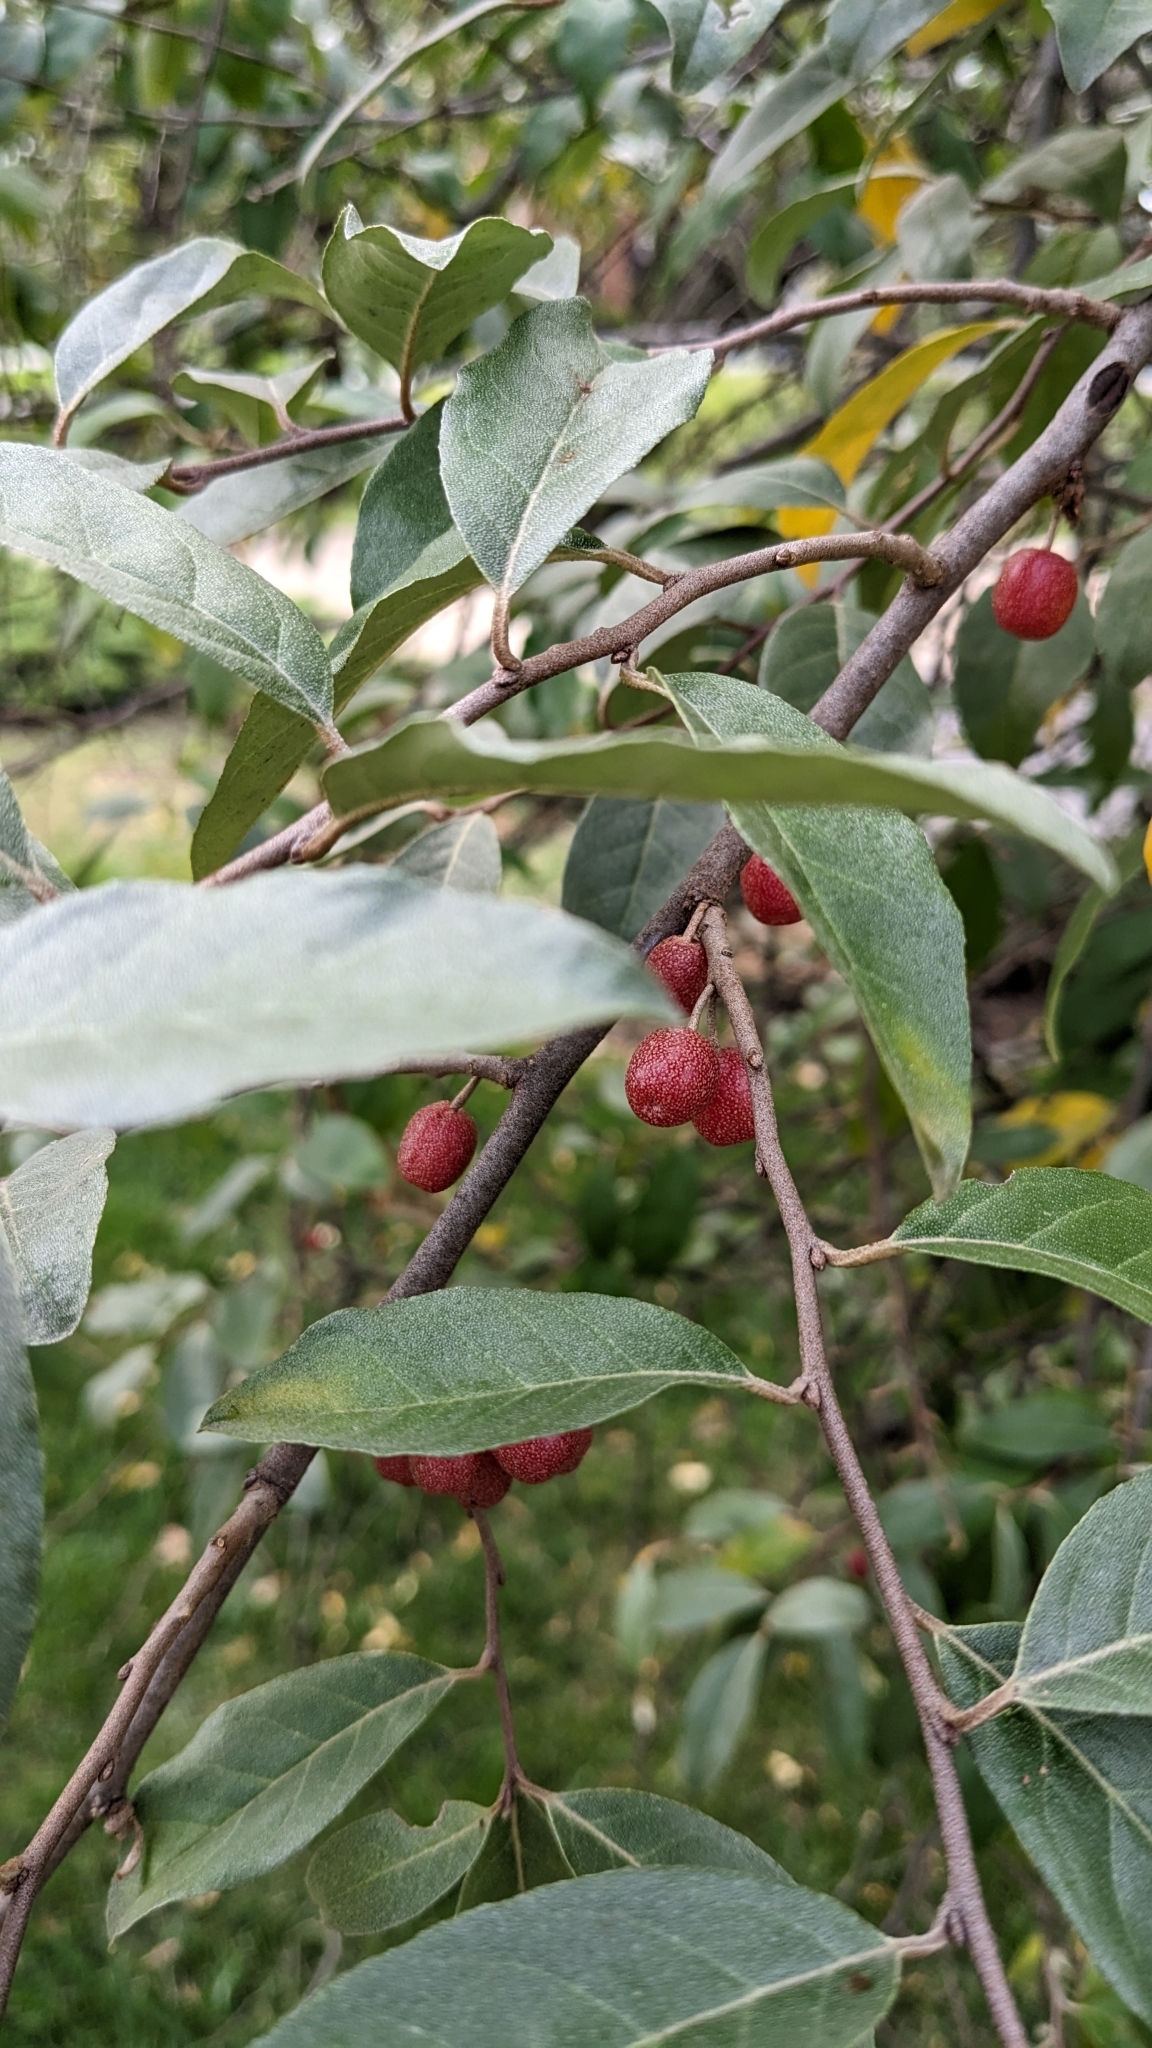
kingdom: Plantae
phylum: Tracheophyta
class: Magnoliopsida
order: Rosales
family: Elaeagnaceae
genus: Elaeagnus
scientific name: Elaeagnus umbellata
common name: Autumn olive
